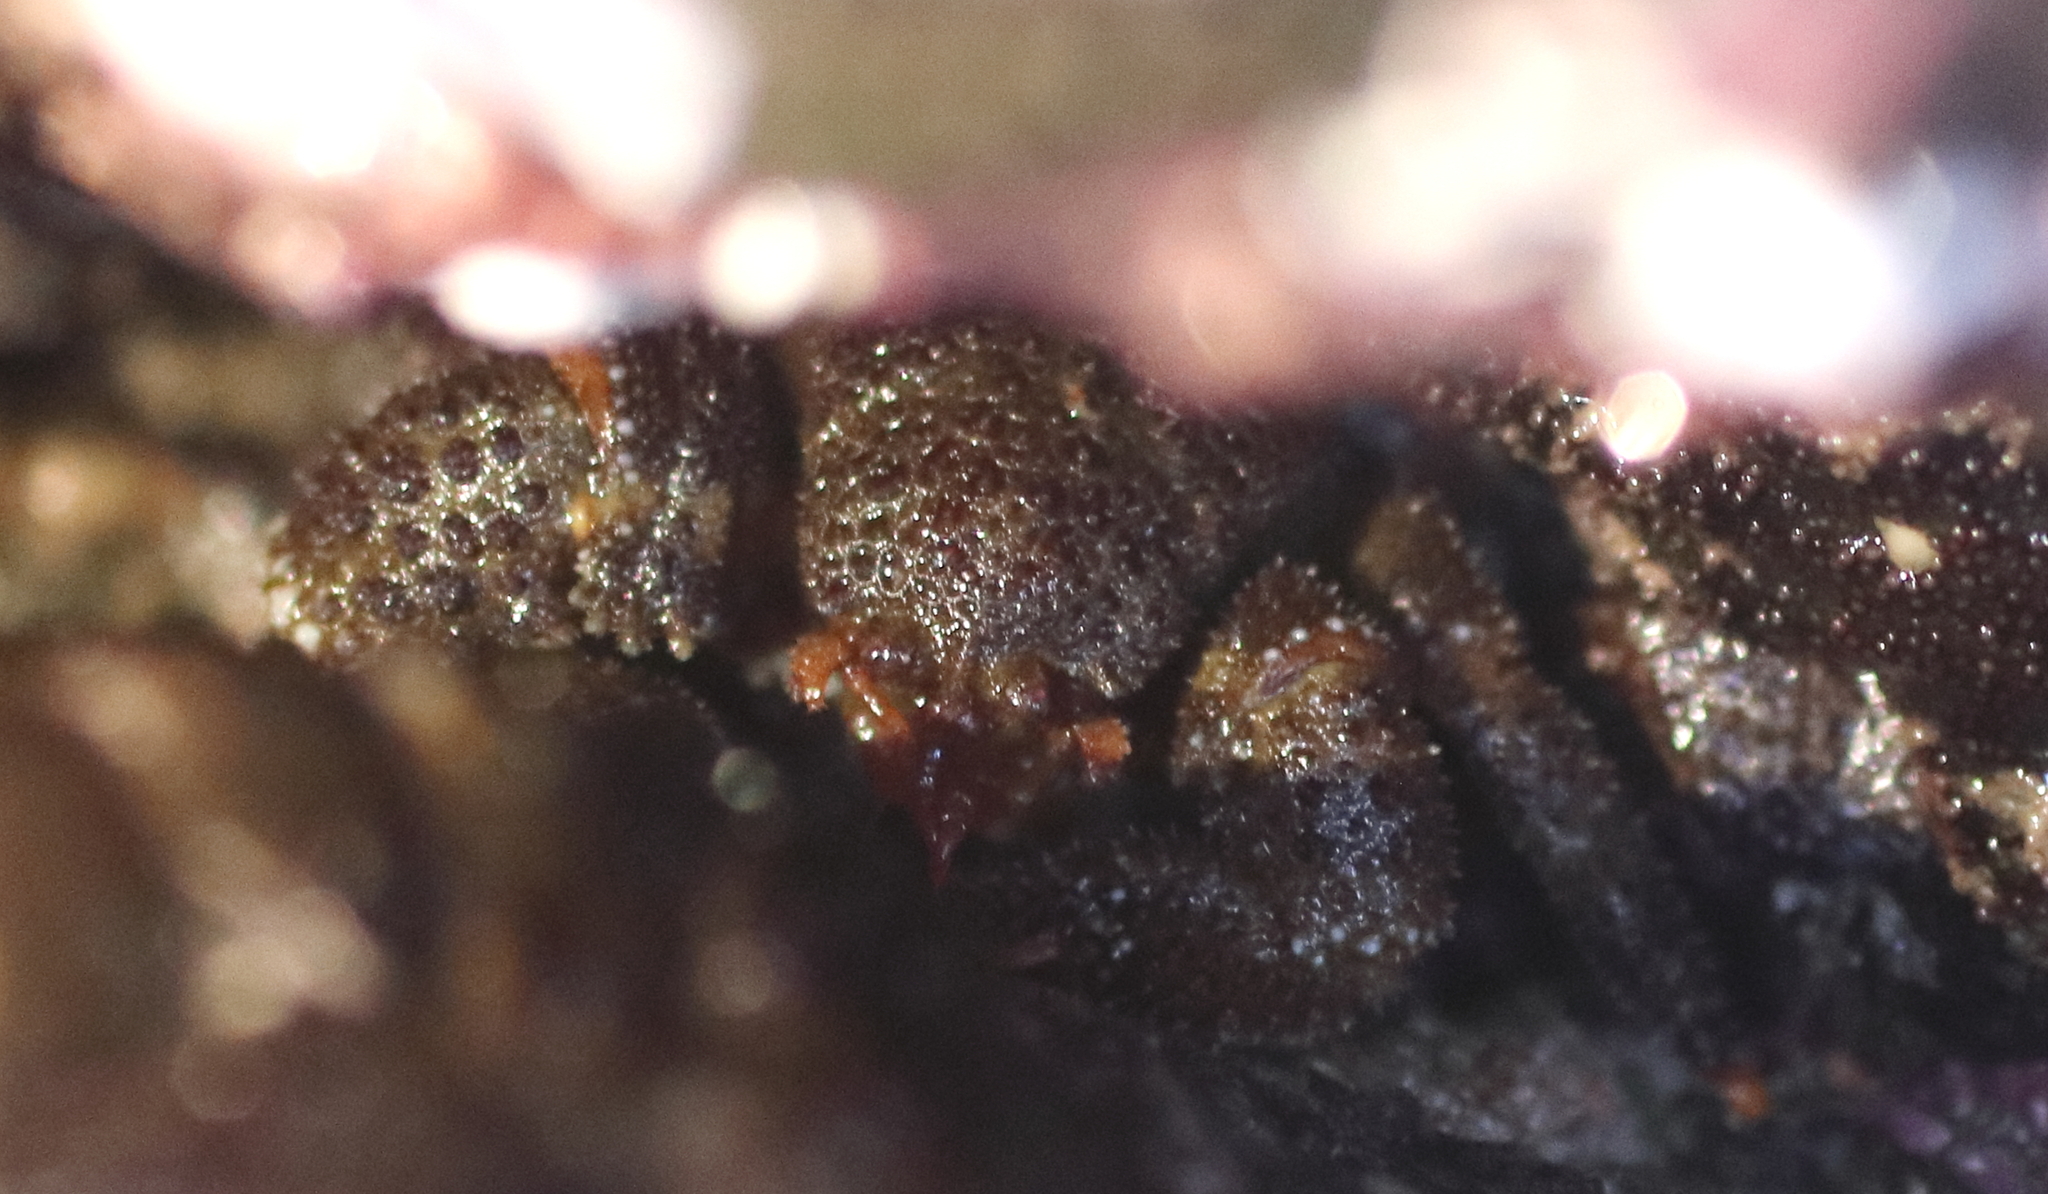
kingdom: Animalia
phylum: Arthropoda
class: Malacostraca
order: Decapoda
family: Hapalogastridae
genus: Oedignathus
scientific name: Oedignathus inermis
